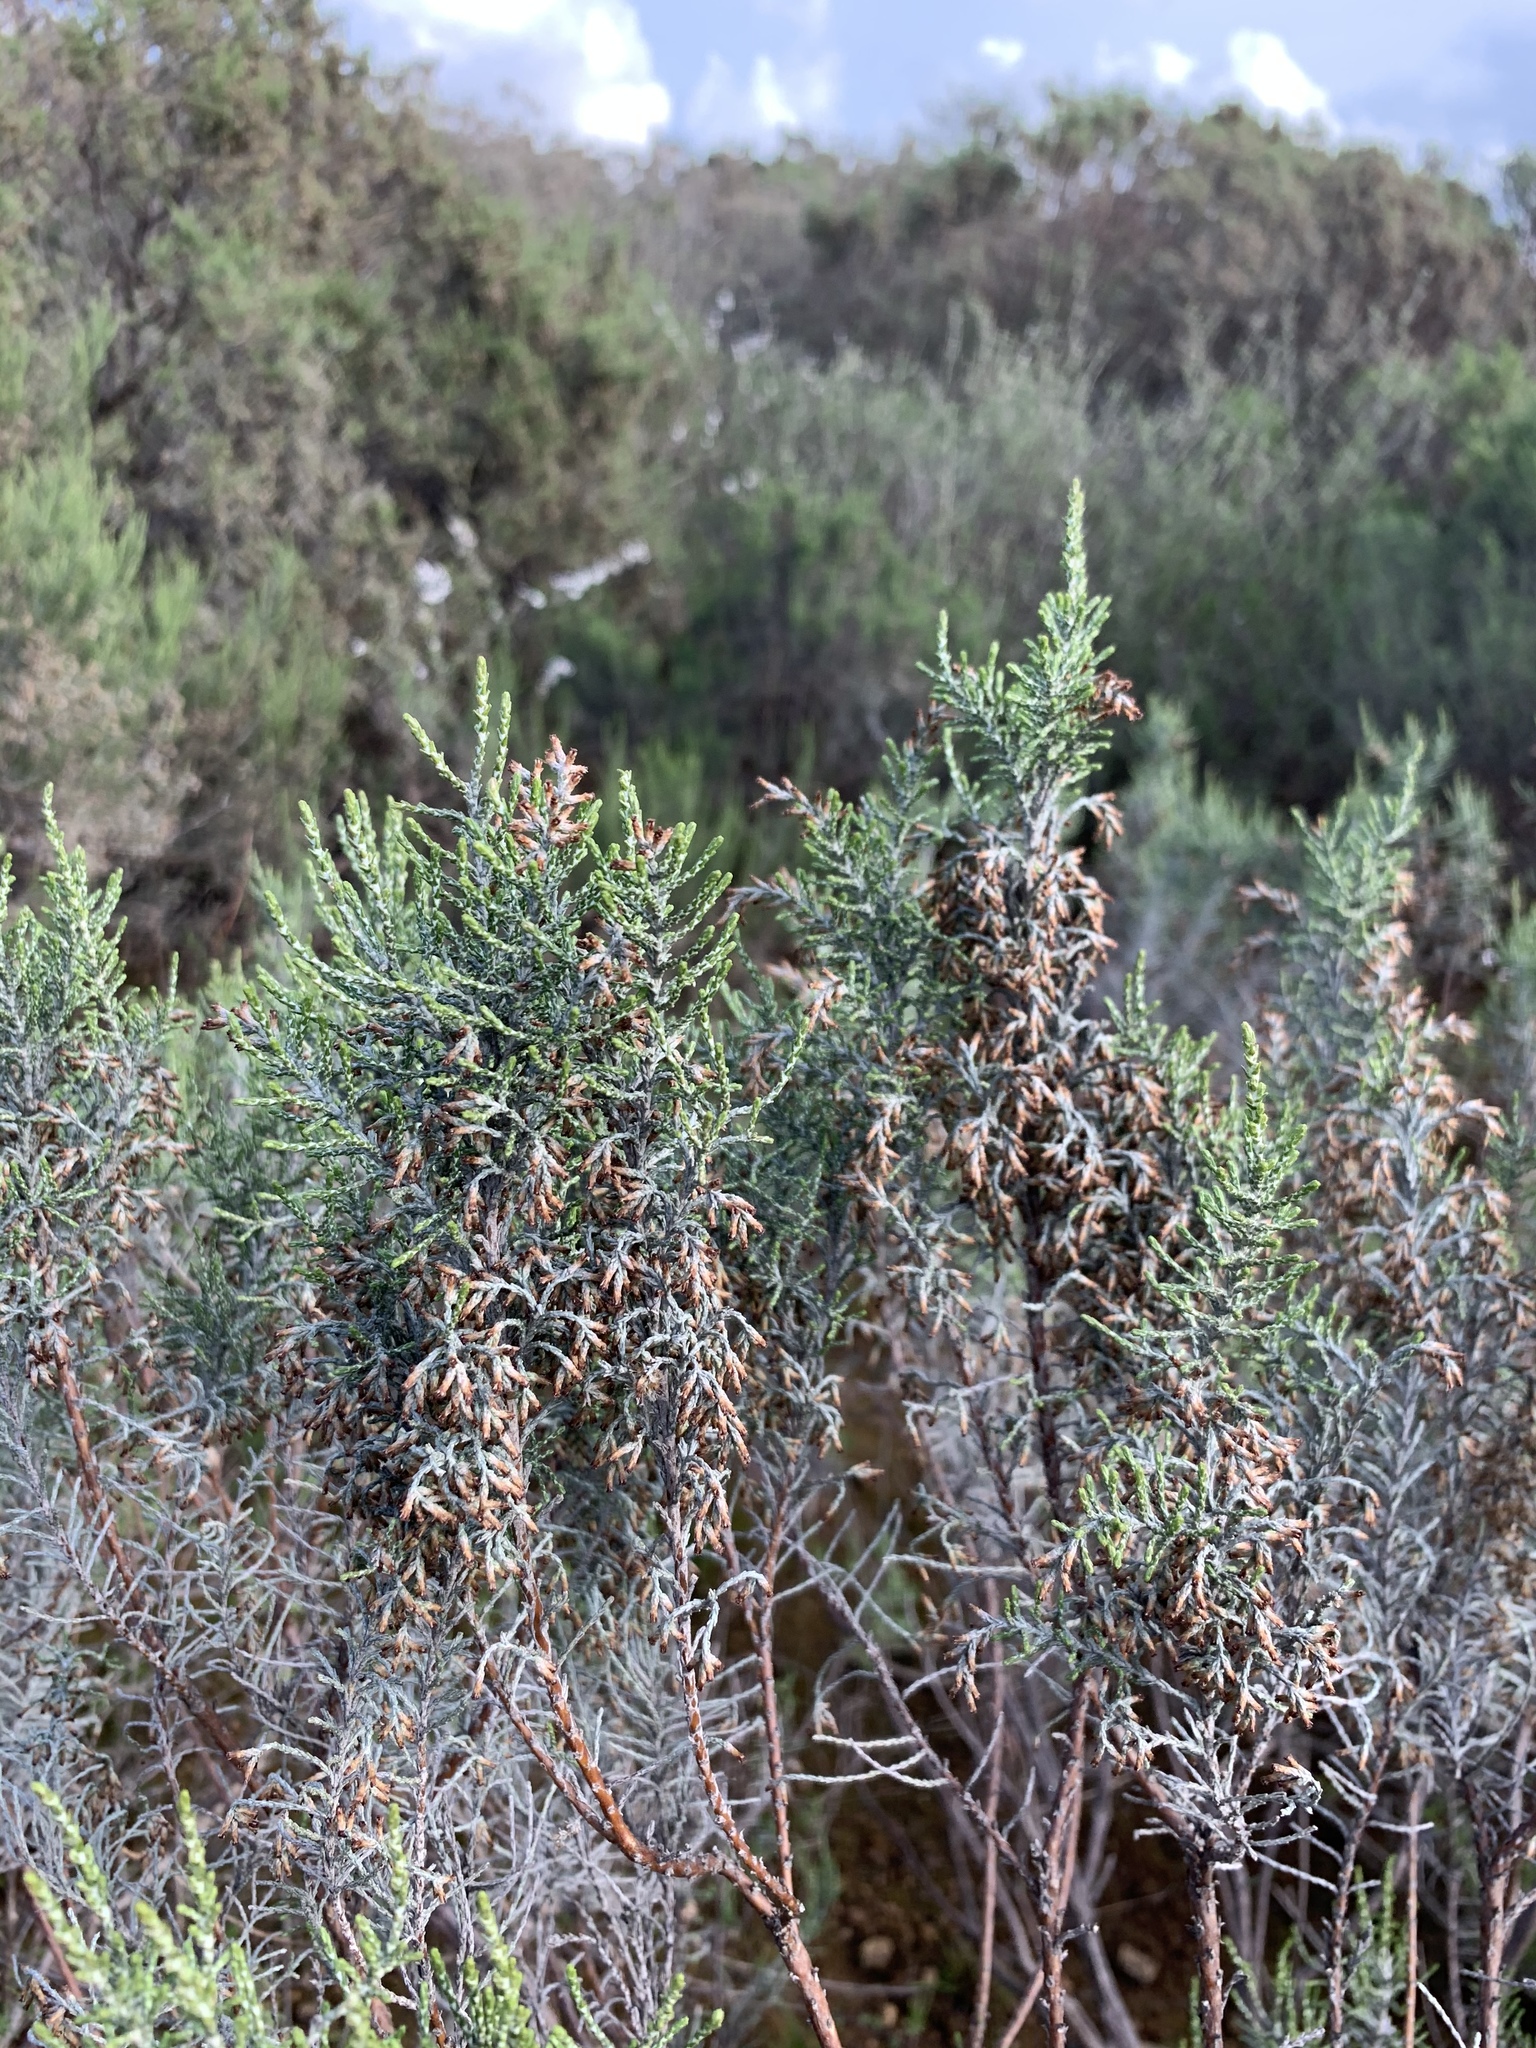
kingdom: Plantae
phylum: Tracheophyta
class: Magnoliopsida
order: Asterales
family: Asteraceae
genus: Dicerothamnus
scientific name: Dicerothamnus rhinocerotis
